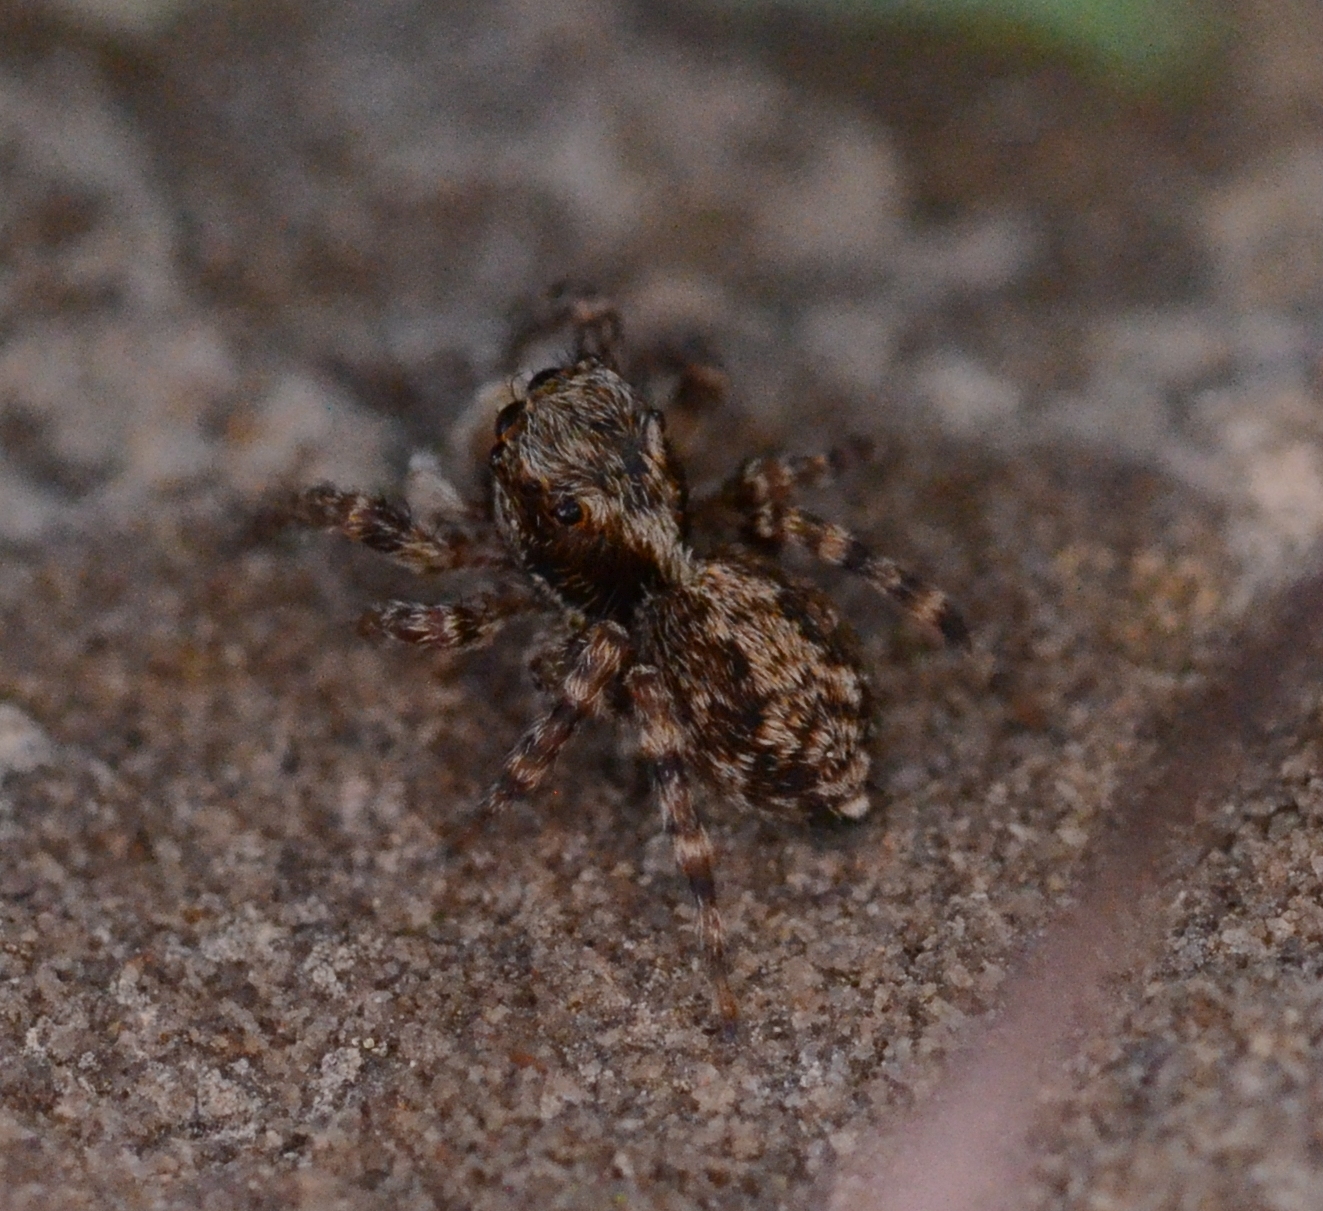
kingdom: Animalia
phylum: Arthropoda
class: Arachnida
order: Araneae
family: Salticidae
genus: Pseudeuophrys
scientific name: Pseudeuophrys lanigera
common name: Jumping spider
